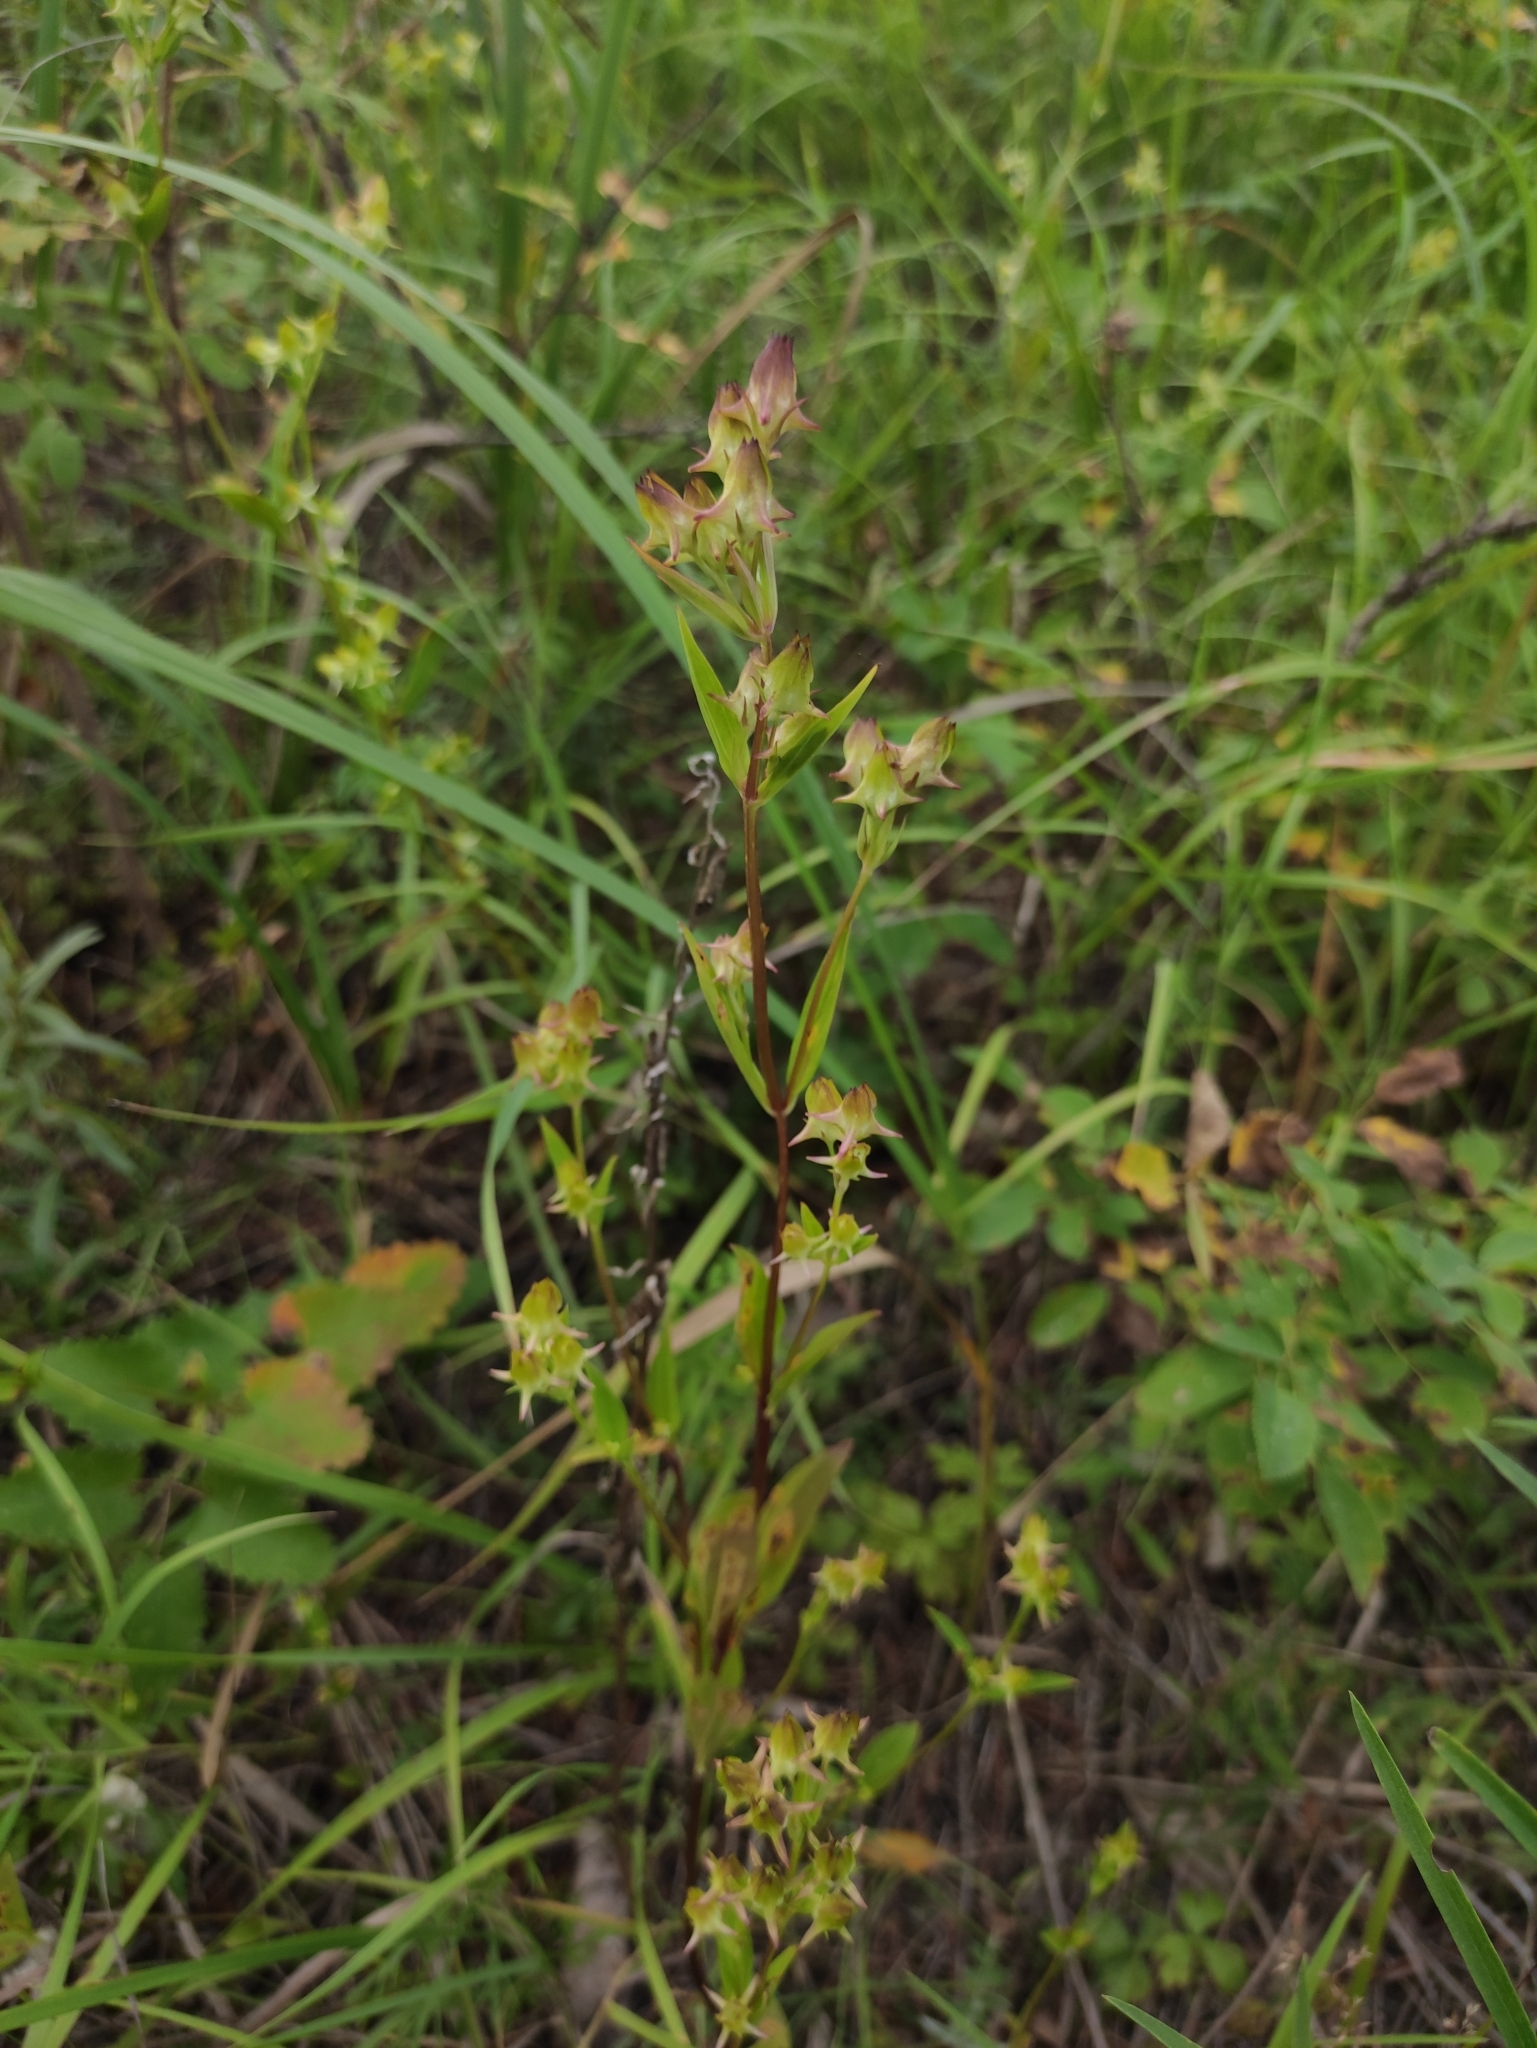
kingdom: Plantae
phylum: Tracheophyta
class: Magnoliopsida
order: Gentianales
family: Gentianaceae
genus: Halenia
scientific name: Halenia corniculata
